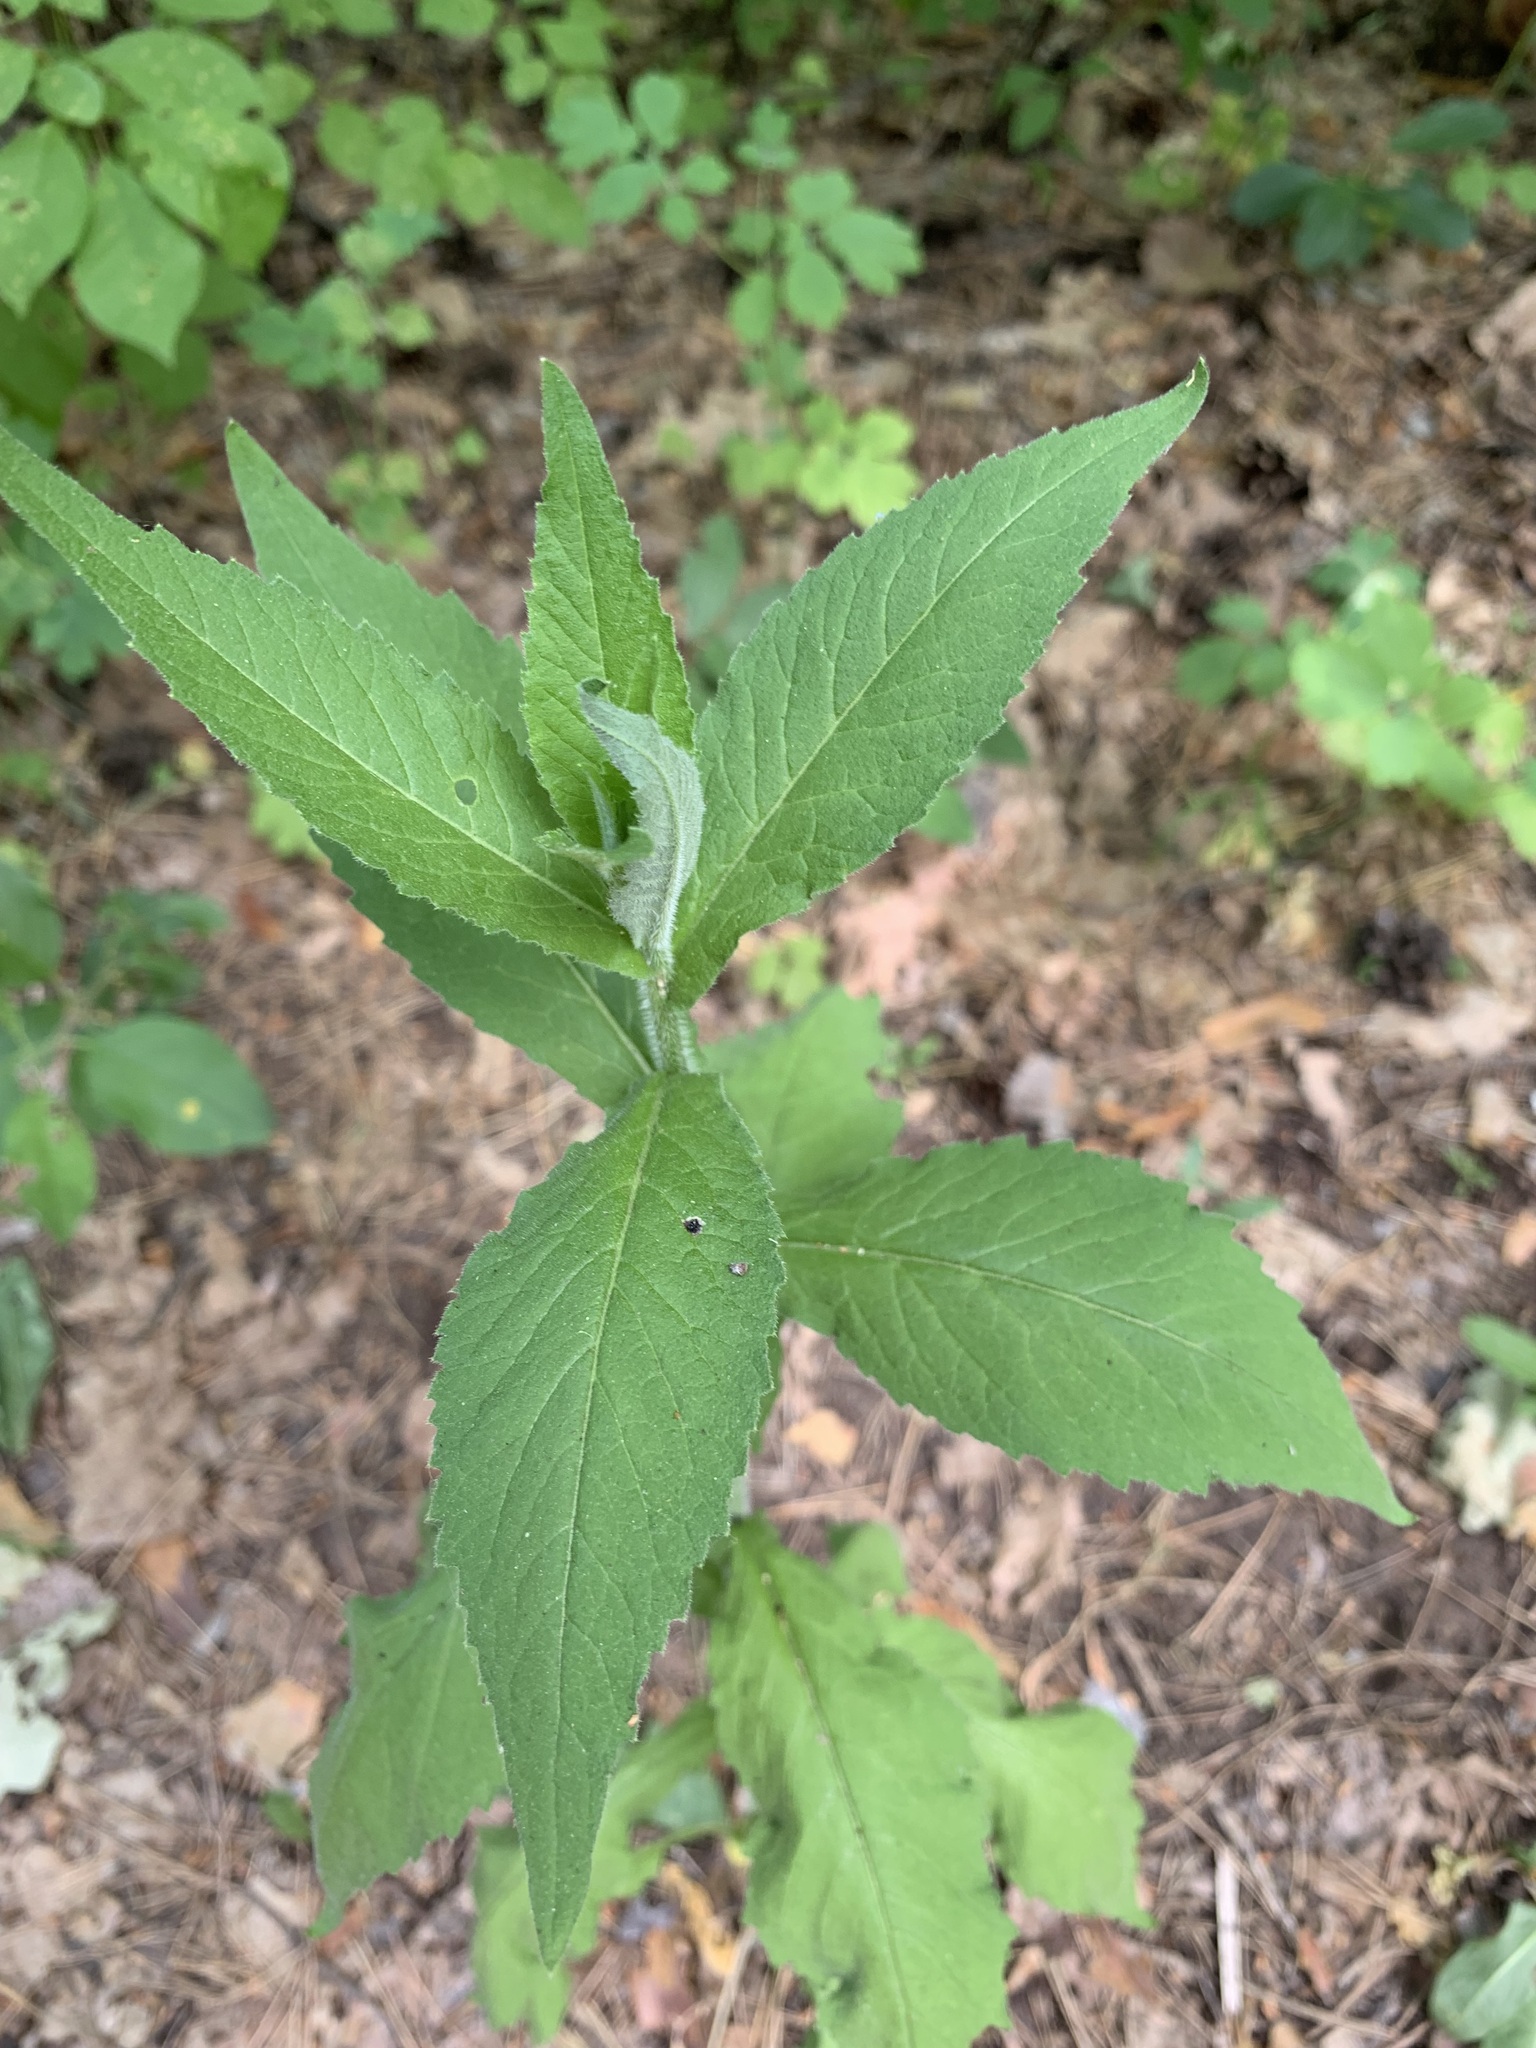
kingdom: Plantae
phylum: Tracheophyta
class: Magnoliopsida
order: Brassicales
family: Brassicaceae
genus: Catolobus
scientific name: Catolobus pendulus
